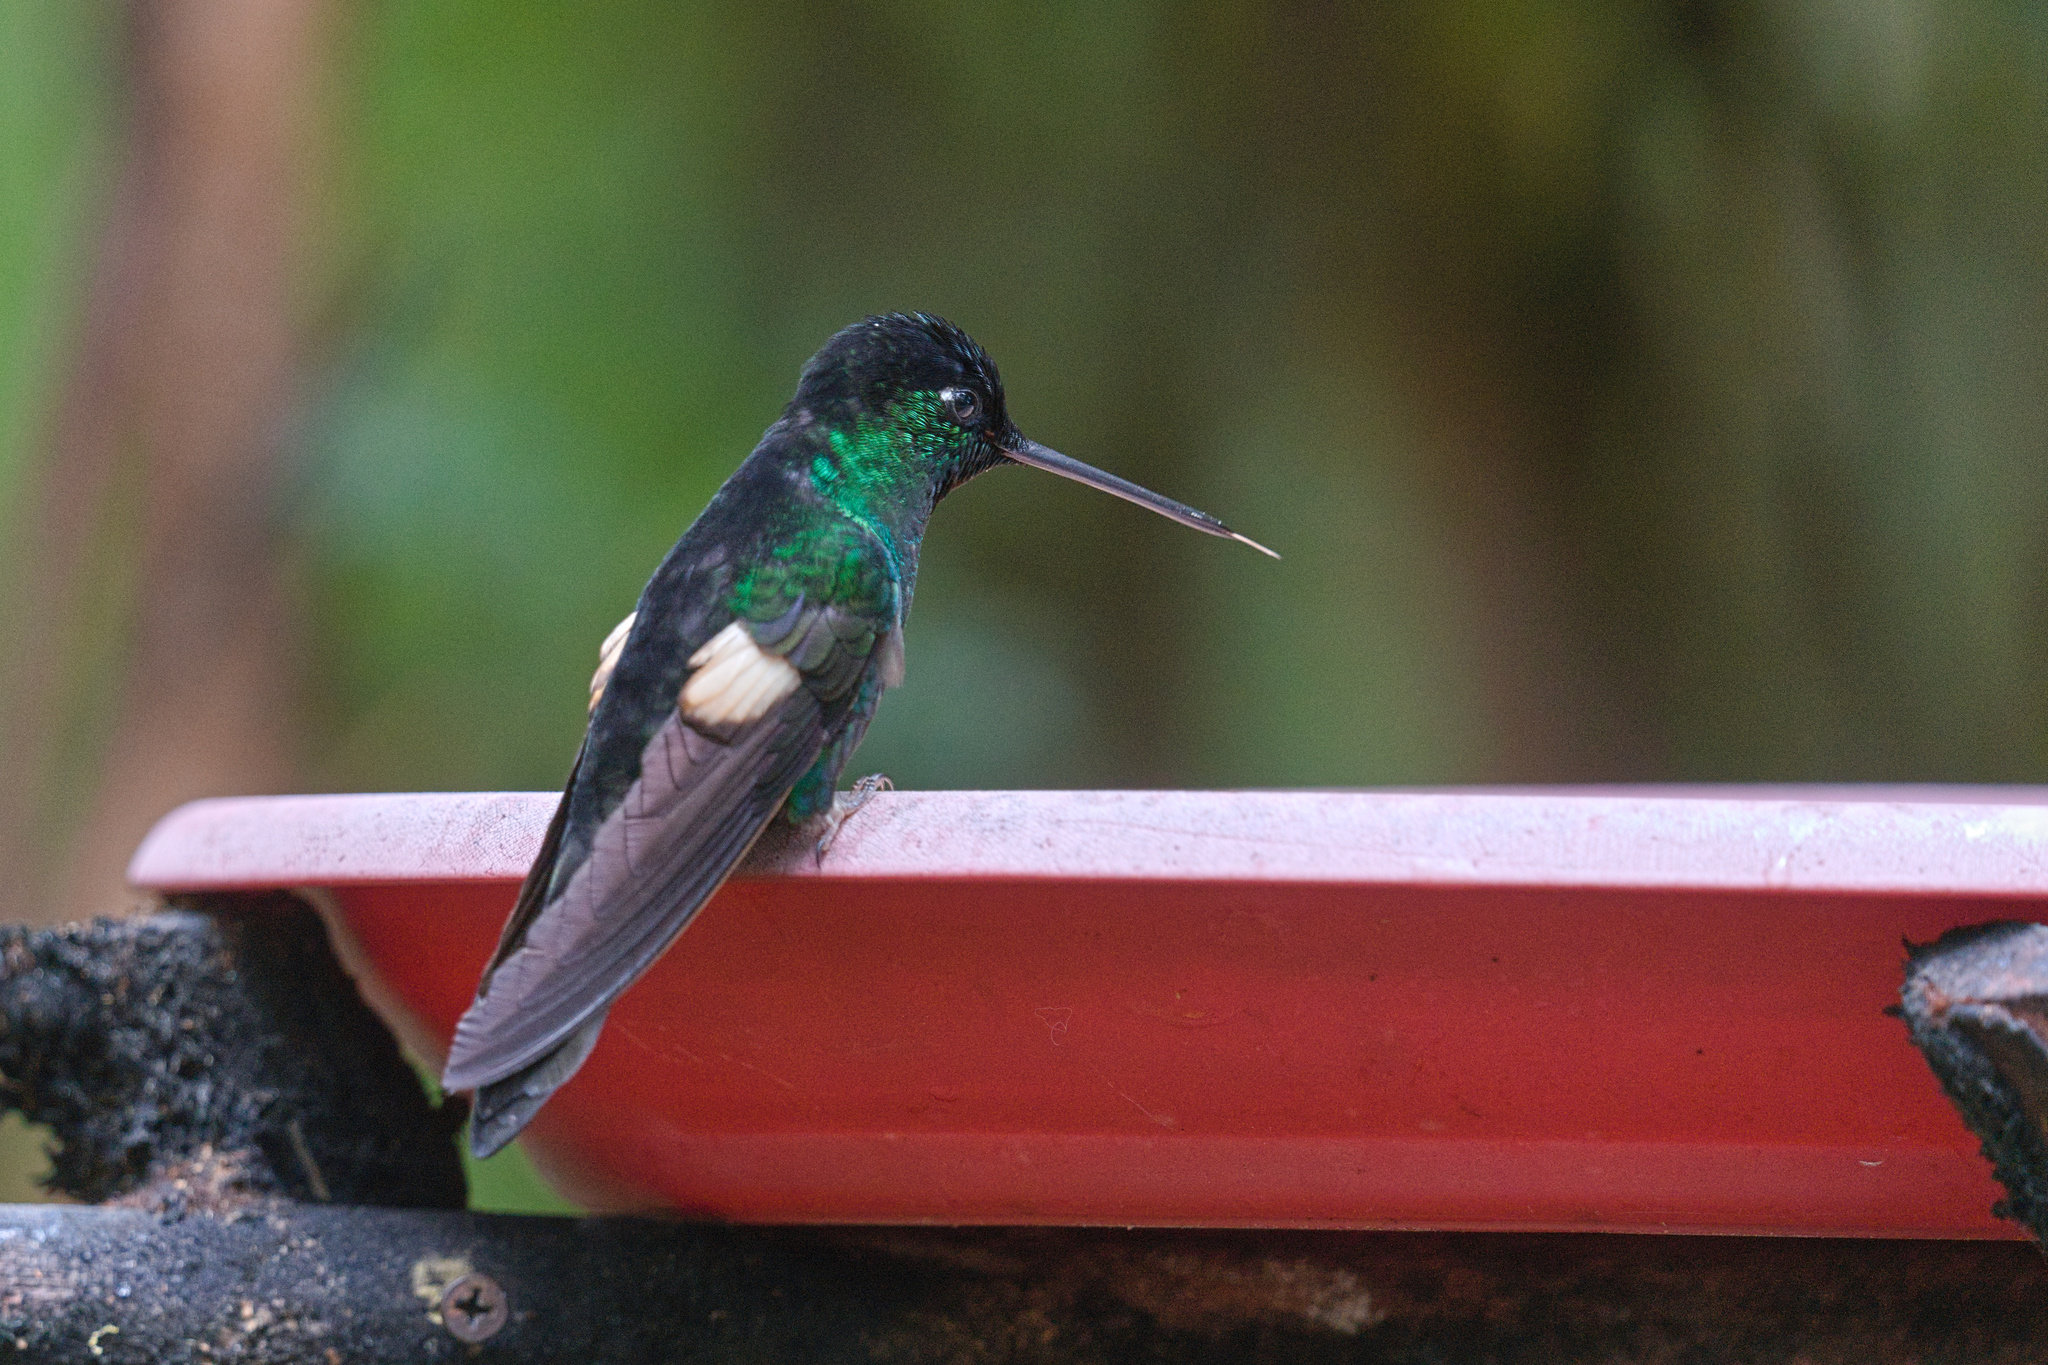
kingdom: Animalia
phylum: Chordata
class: Aves
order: Apodiformes
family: Trochilidae
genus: Coeligena
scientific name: Coeligena lutetiae
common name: Buff-winged starfrontlet
